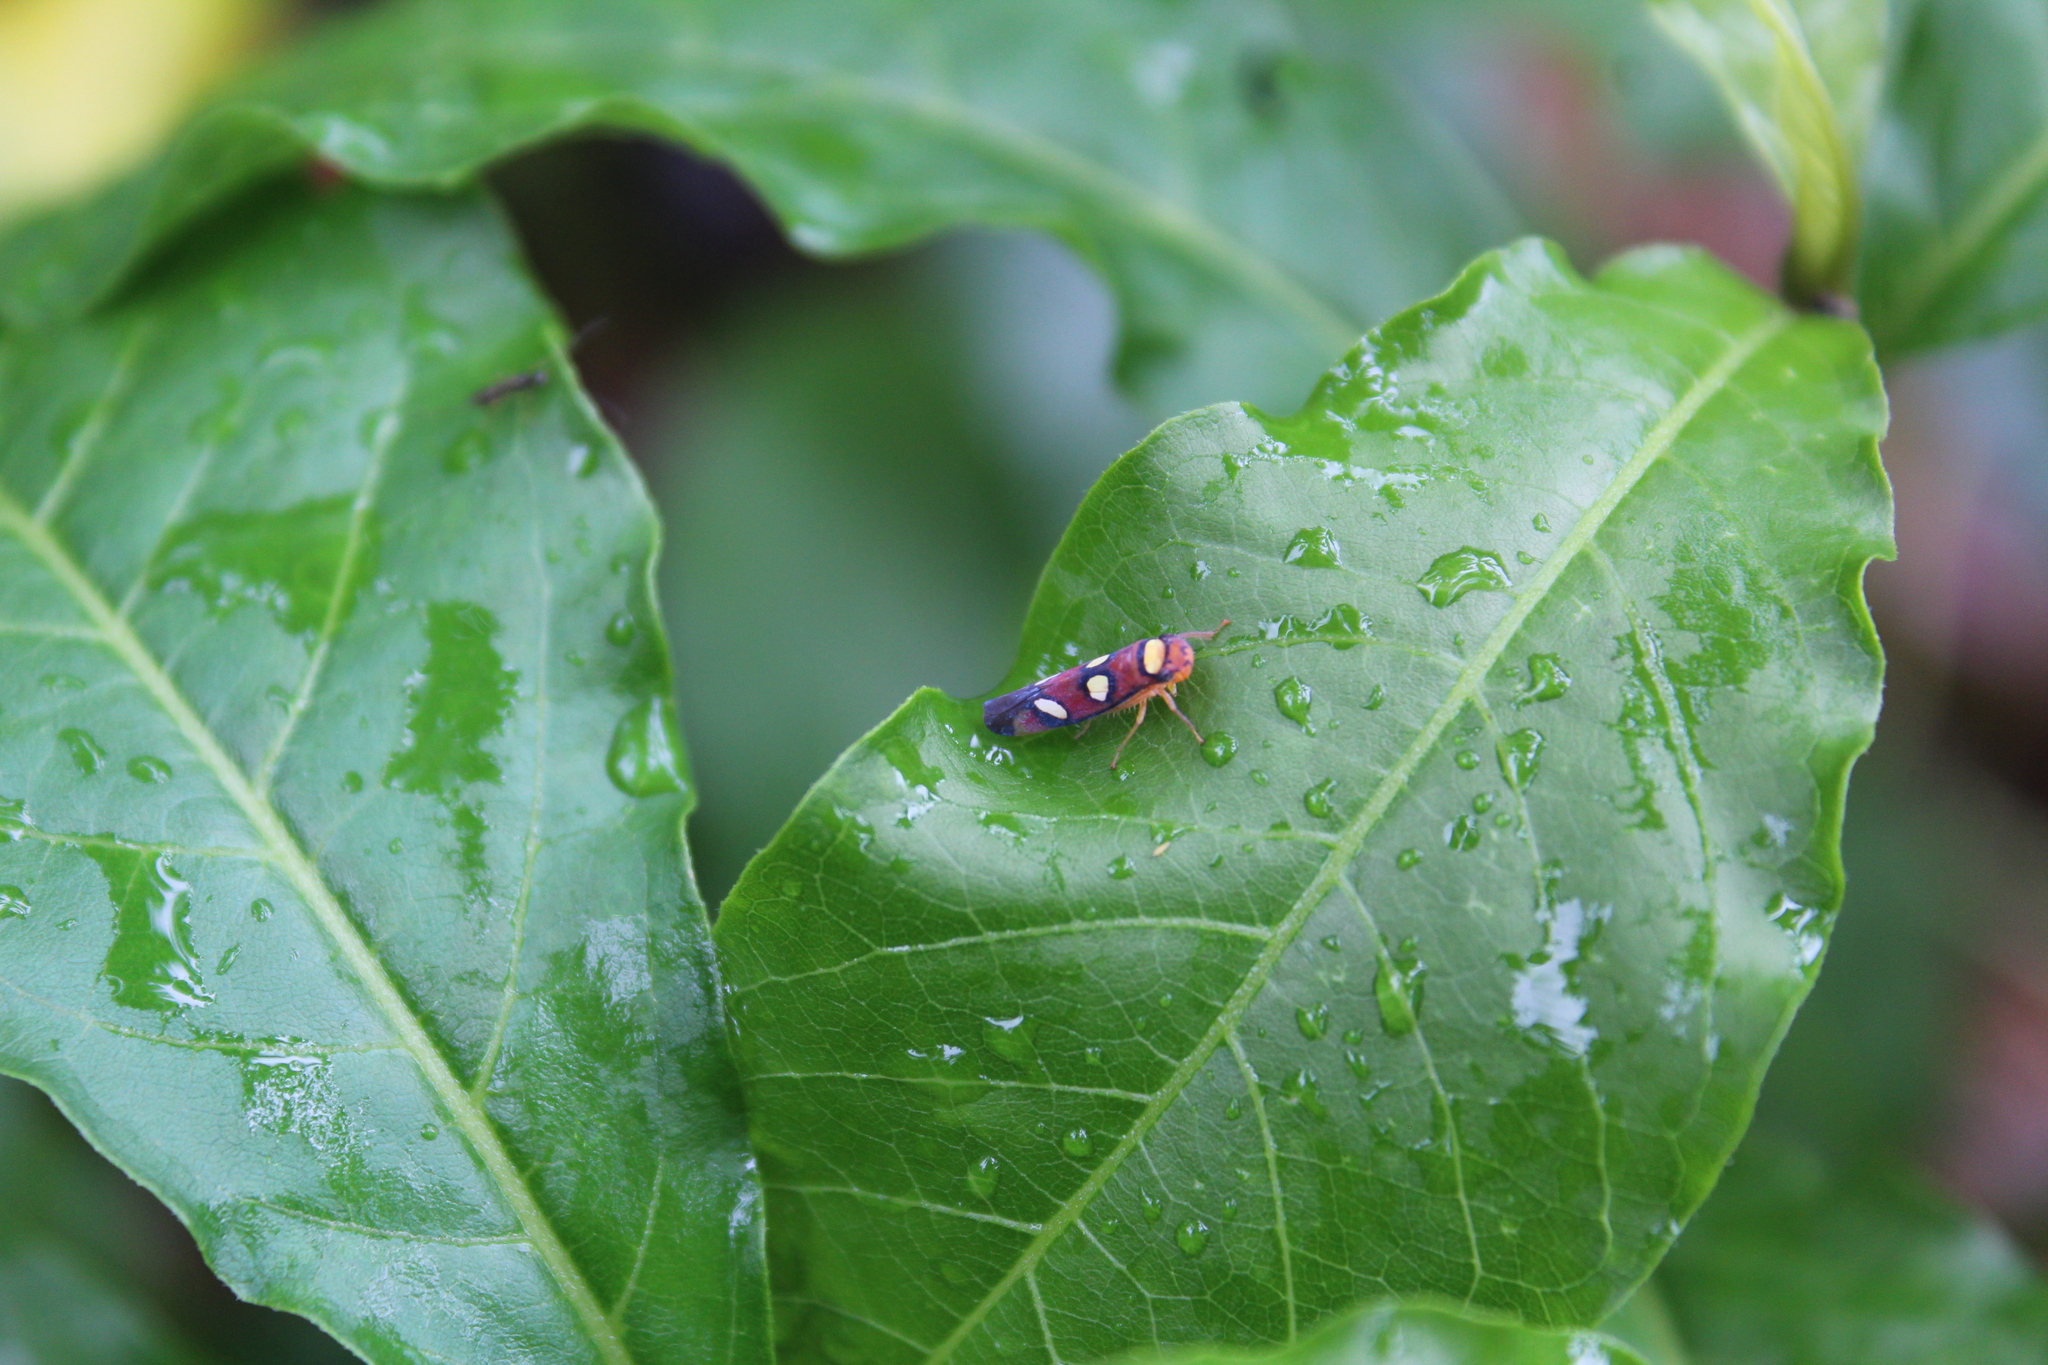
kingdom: Animalia
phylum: Arthropoda
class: Insecta
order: Hemiptera
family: Cicadellidae
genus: Erythrogonia
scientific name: Erythrogonia areolata
